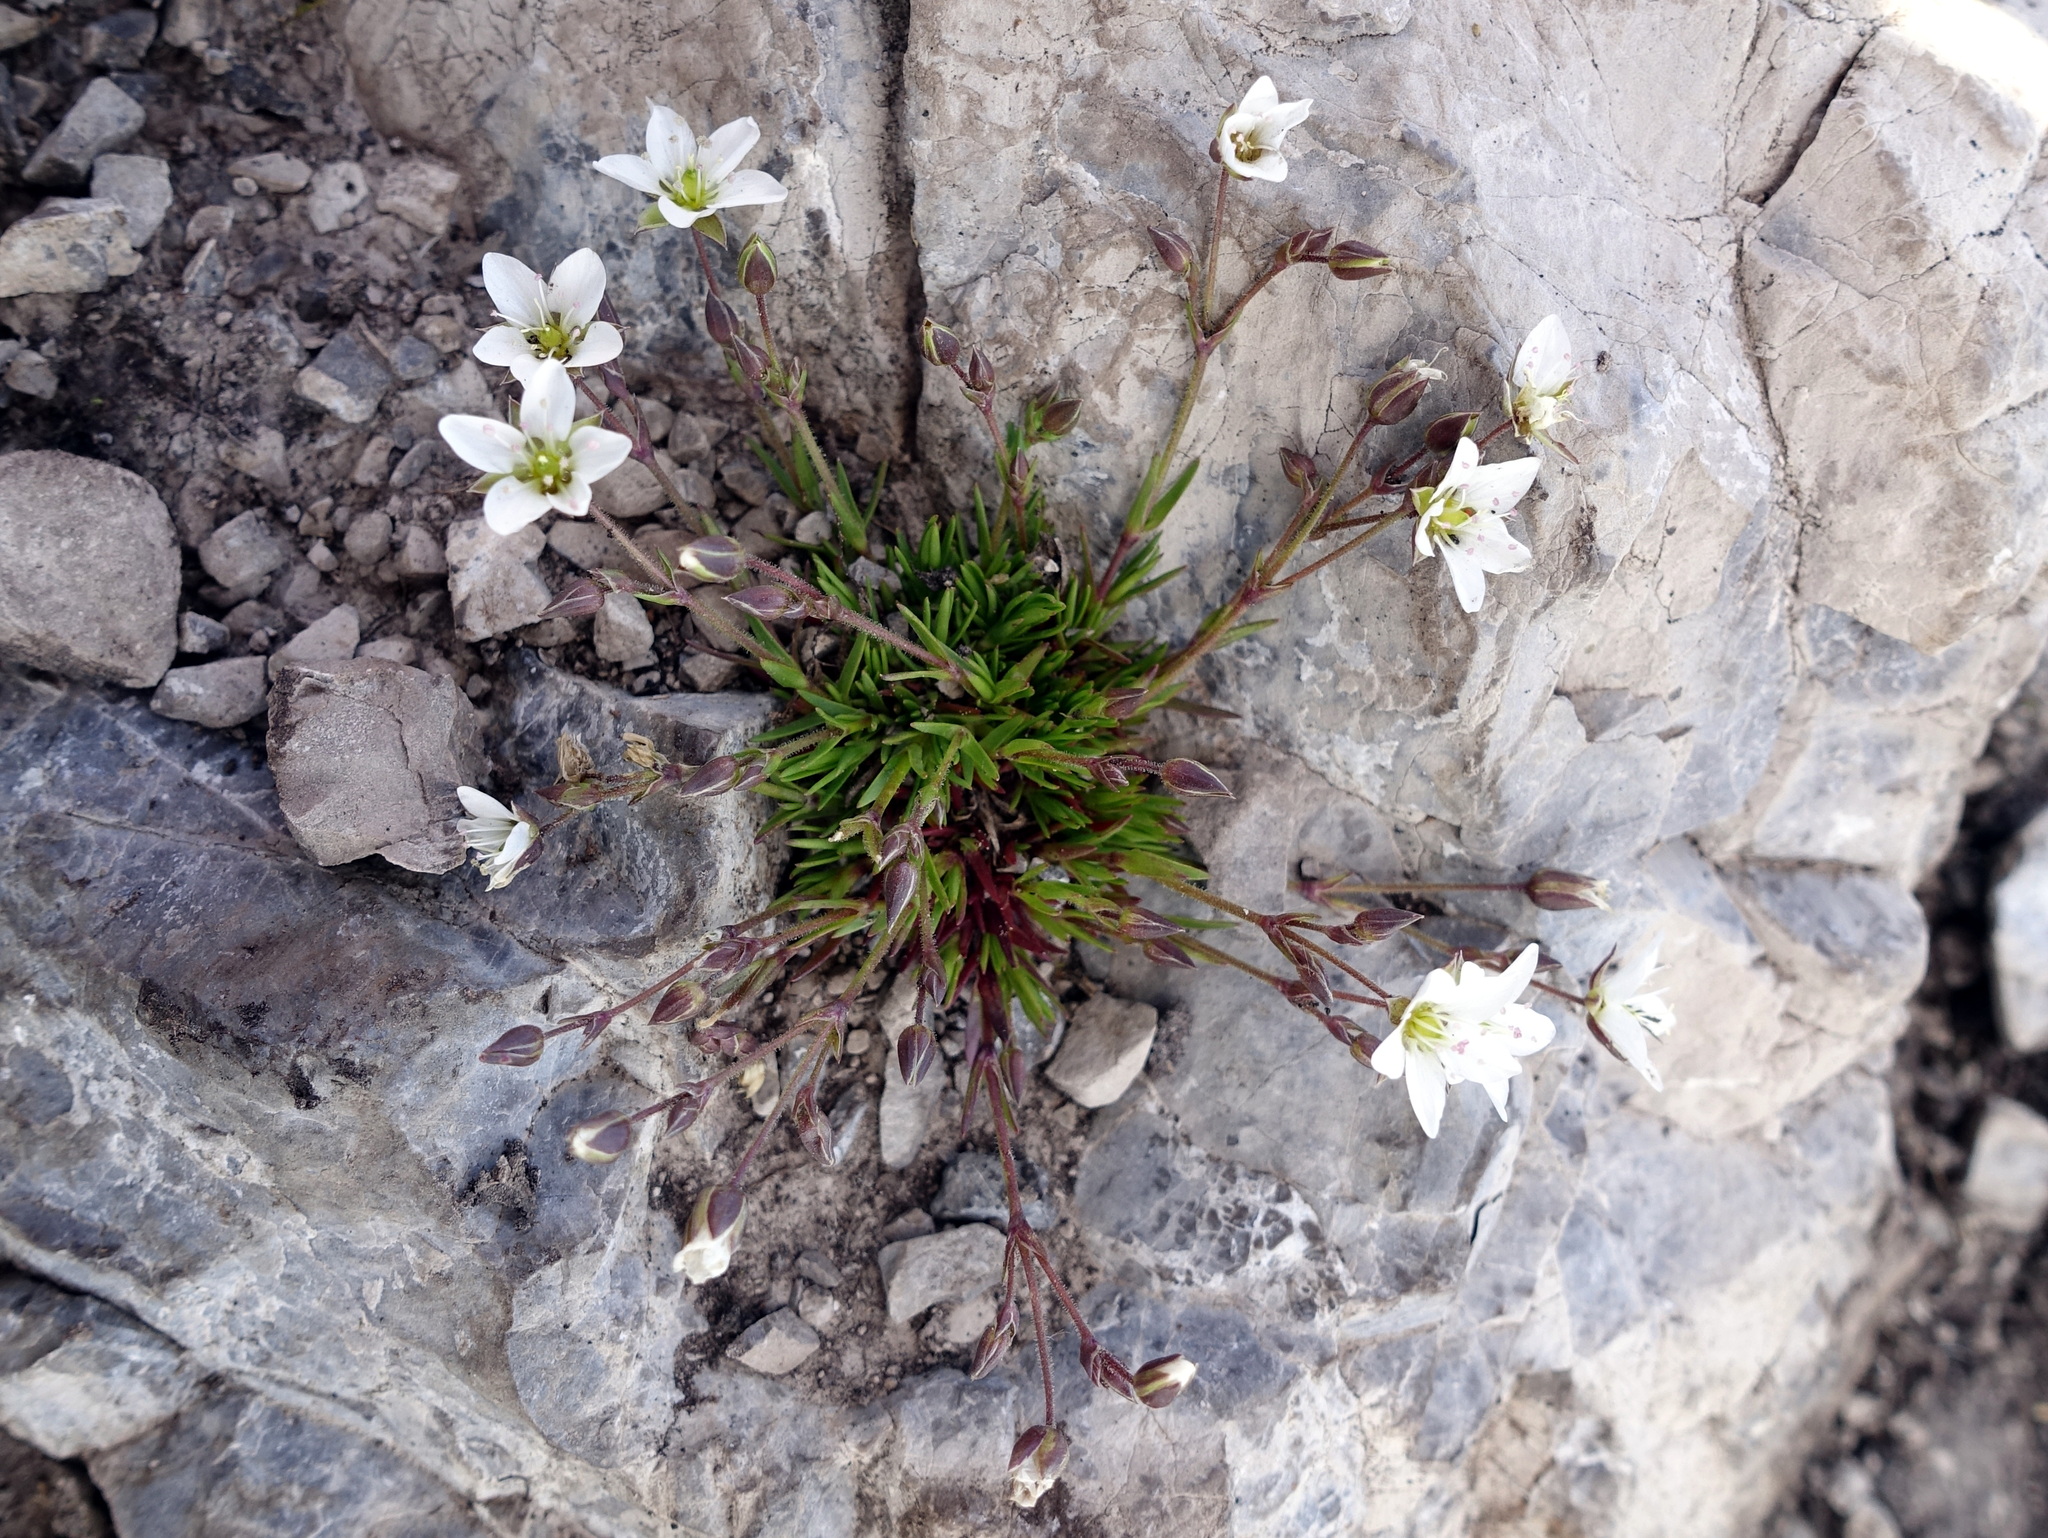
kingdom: Plantae
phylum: Tracheophyta
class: Magnoliopsida
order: Caryophyllales
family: Caryophyllaceae
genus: Sabulina
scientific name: Sabulina verna
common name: Spring sandwort
